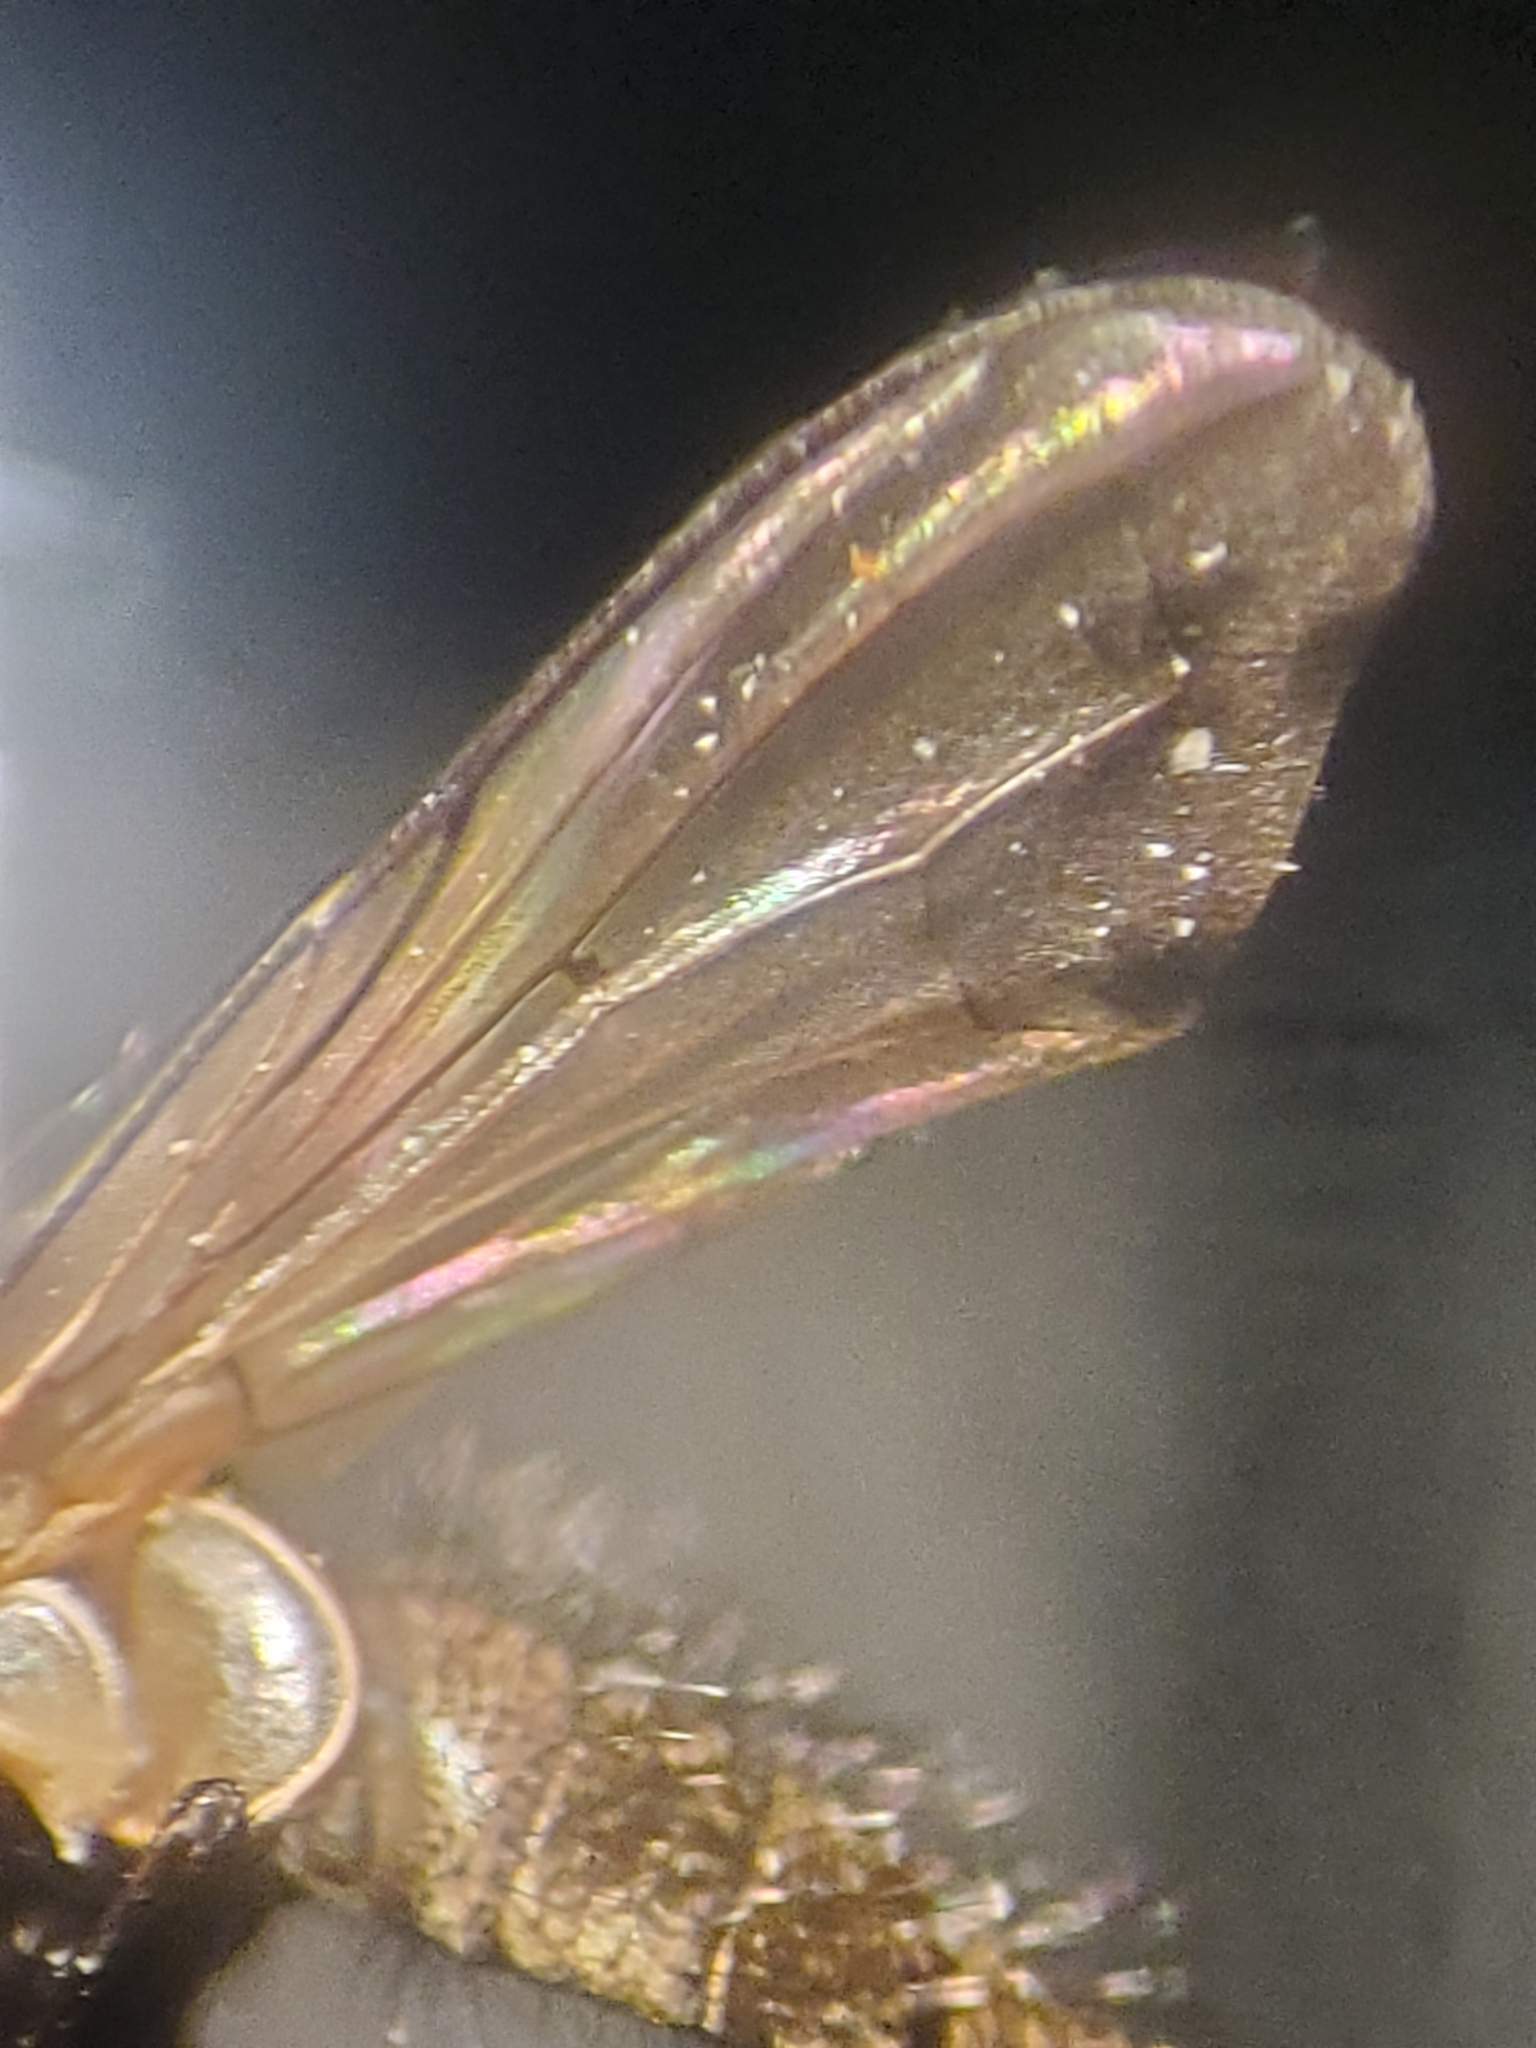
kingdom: Animalia
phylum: Arthropoda
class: Insecta
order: Diptera
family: Tachinidae
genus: Imitomyia
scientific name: Imitomyia sugens
